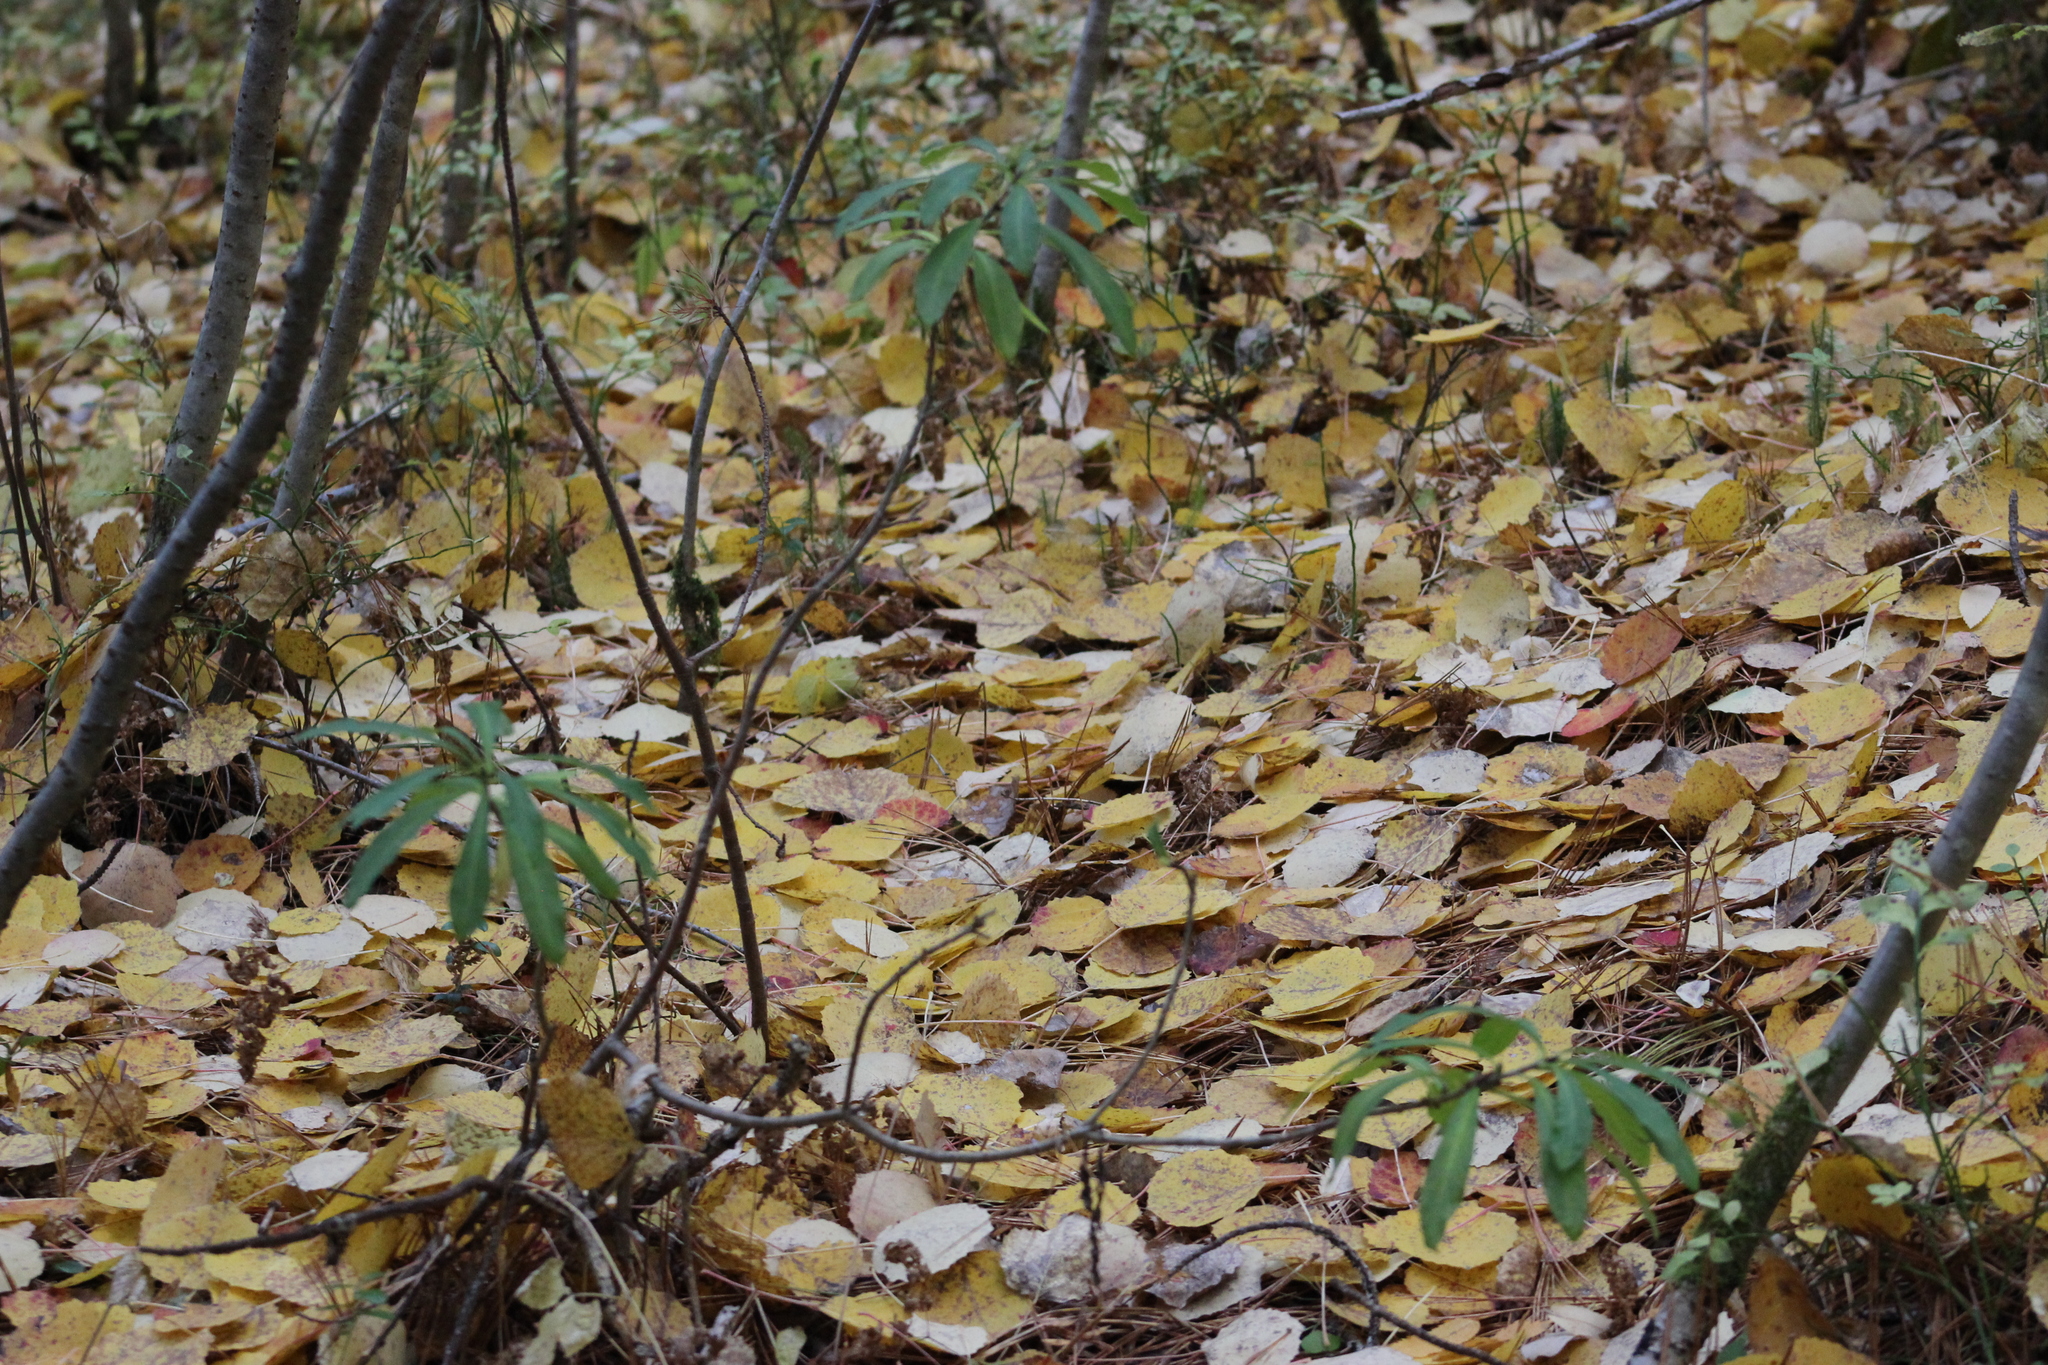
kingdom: Plantae
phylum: Tracheophyta
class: Magnoliopsida
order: Malvales
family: Thymelaeaceae
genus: Daphne
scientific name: Daphne mezereum
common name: Mezereon
